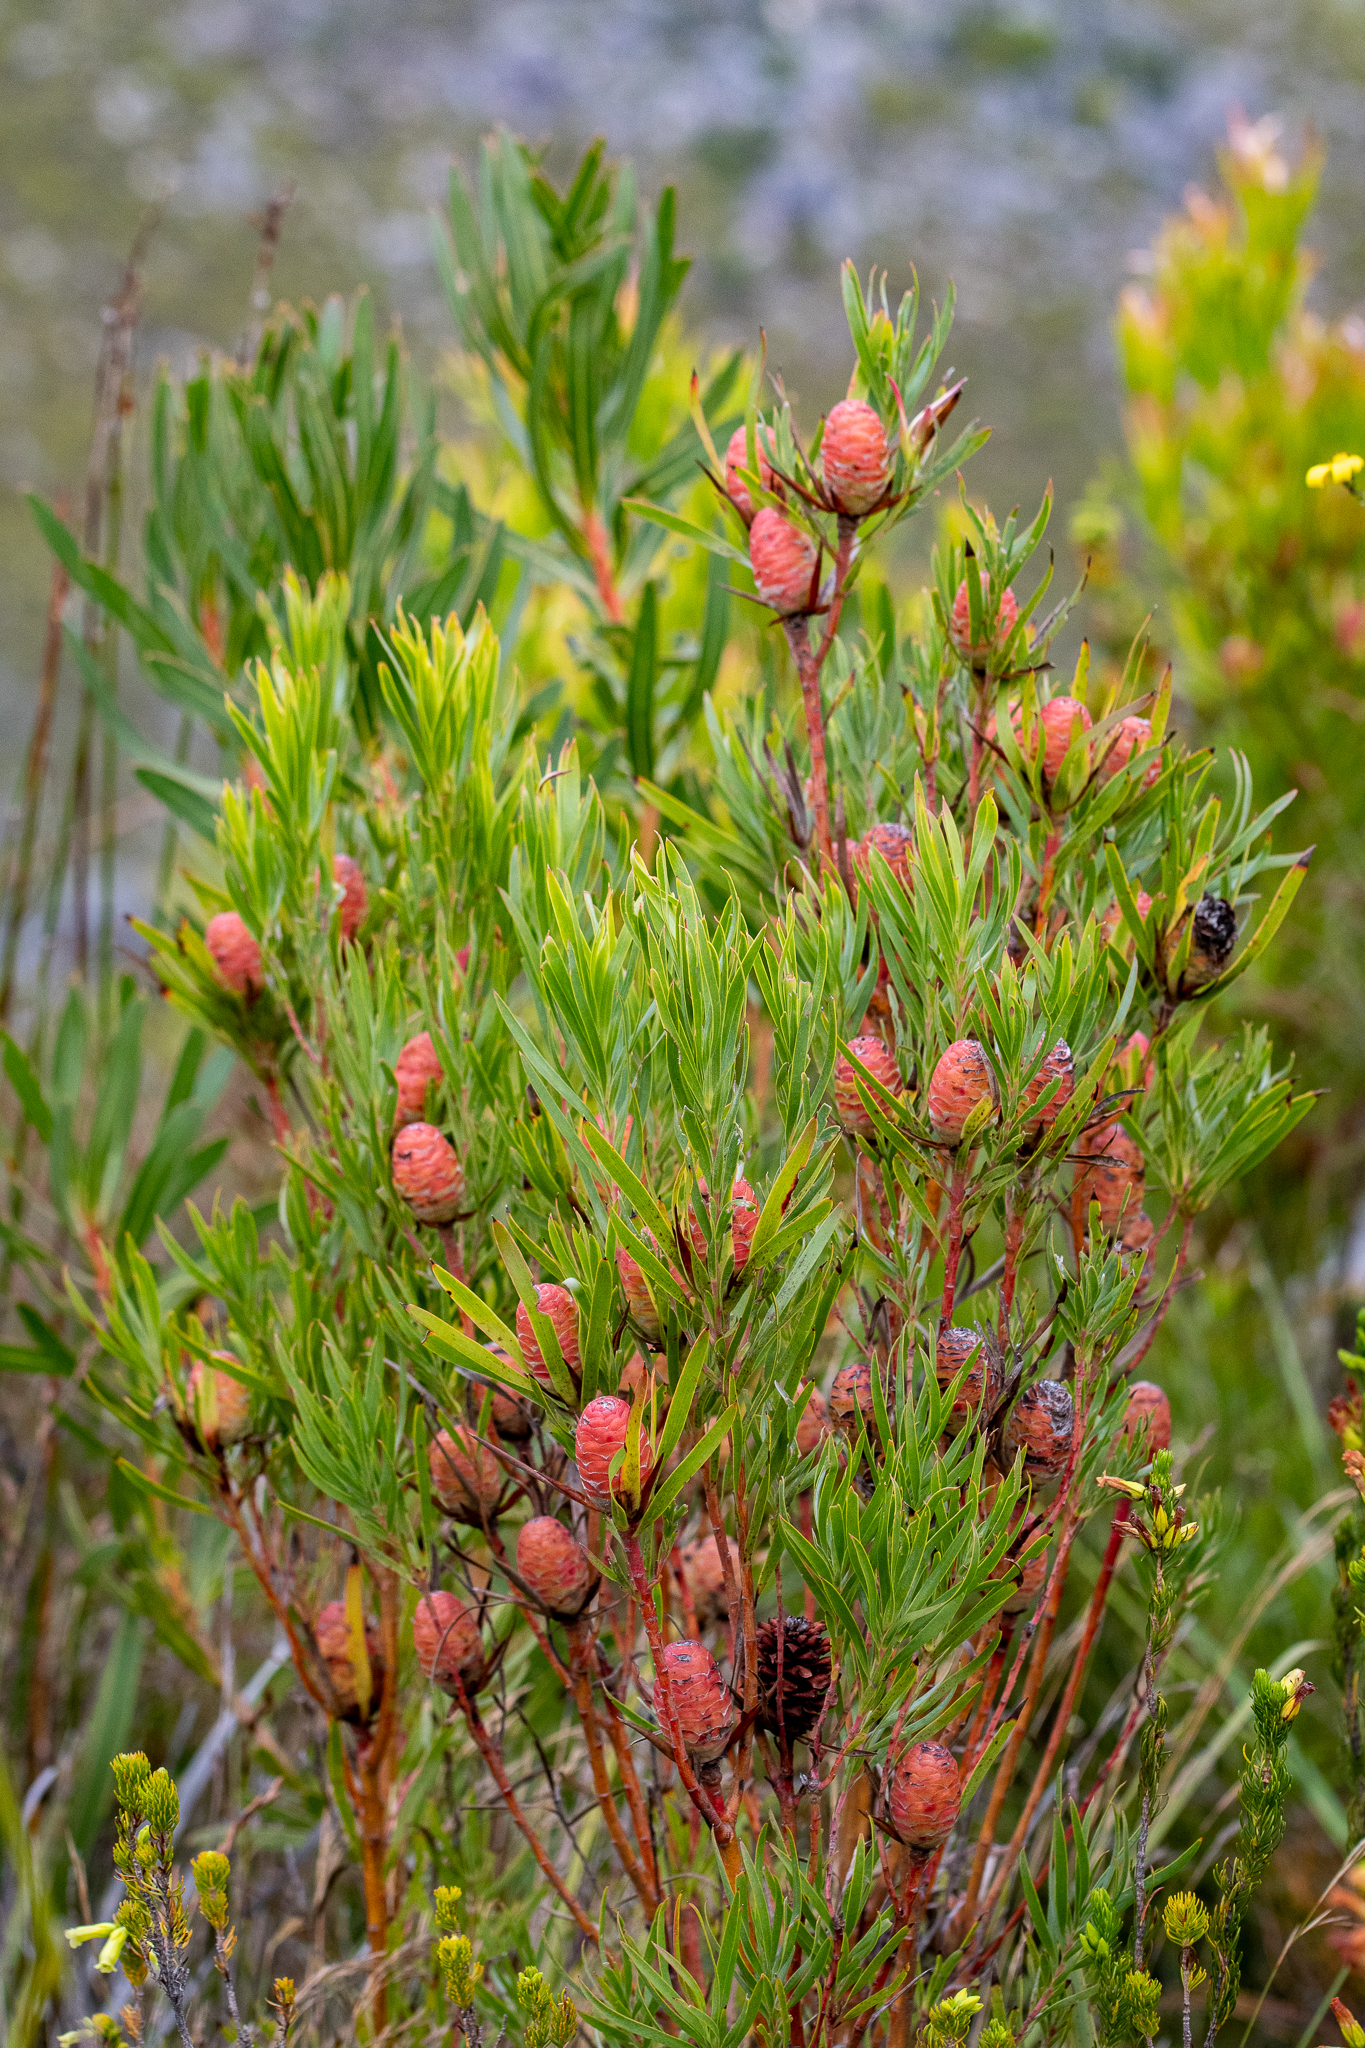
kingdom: Plantae
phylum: Tracheophyta
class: Magnoliopsida
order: Proteales
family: Proteaceae
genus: Leucadendron
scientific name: Leucadendron xanthoconus
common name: Sickle-leaf conebush
